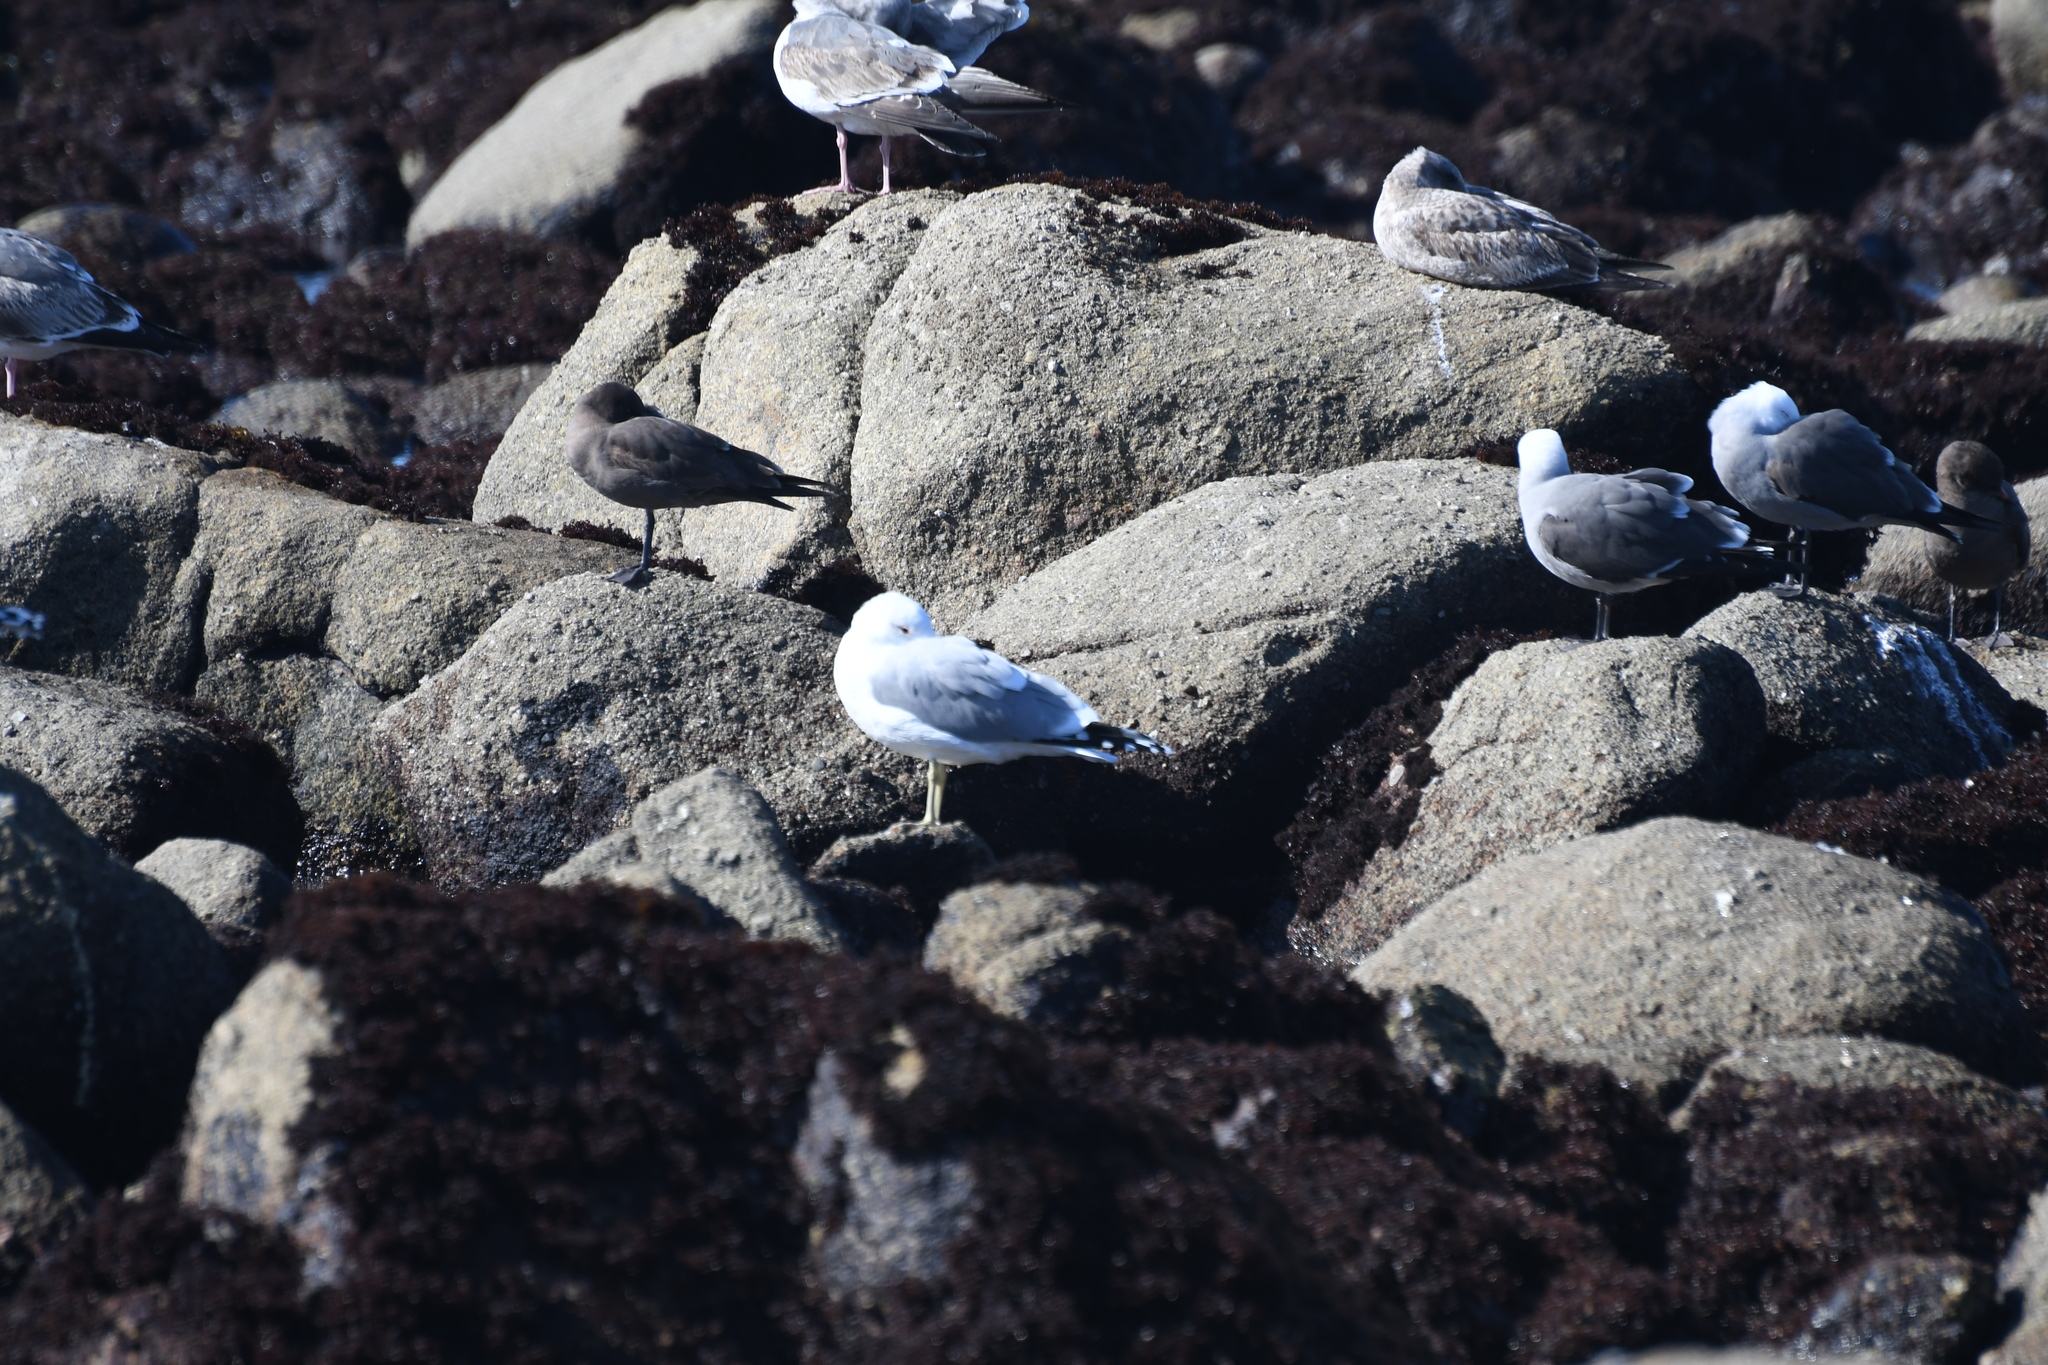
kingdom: Animalia
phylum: Chordata
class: Aves
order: Charadriiformes
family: Laridae
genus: Larus
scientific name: Larus californicus
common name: California gull
